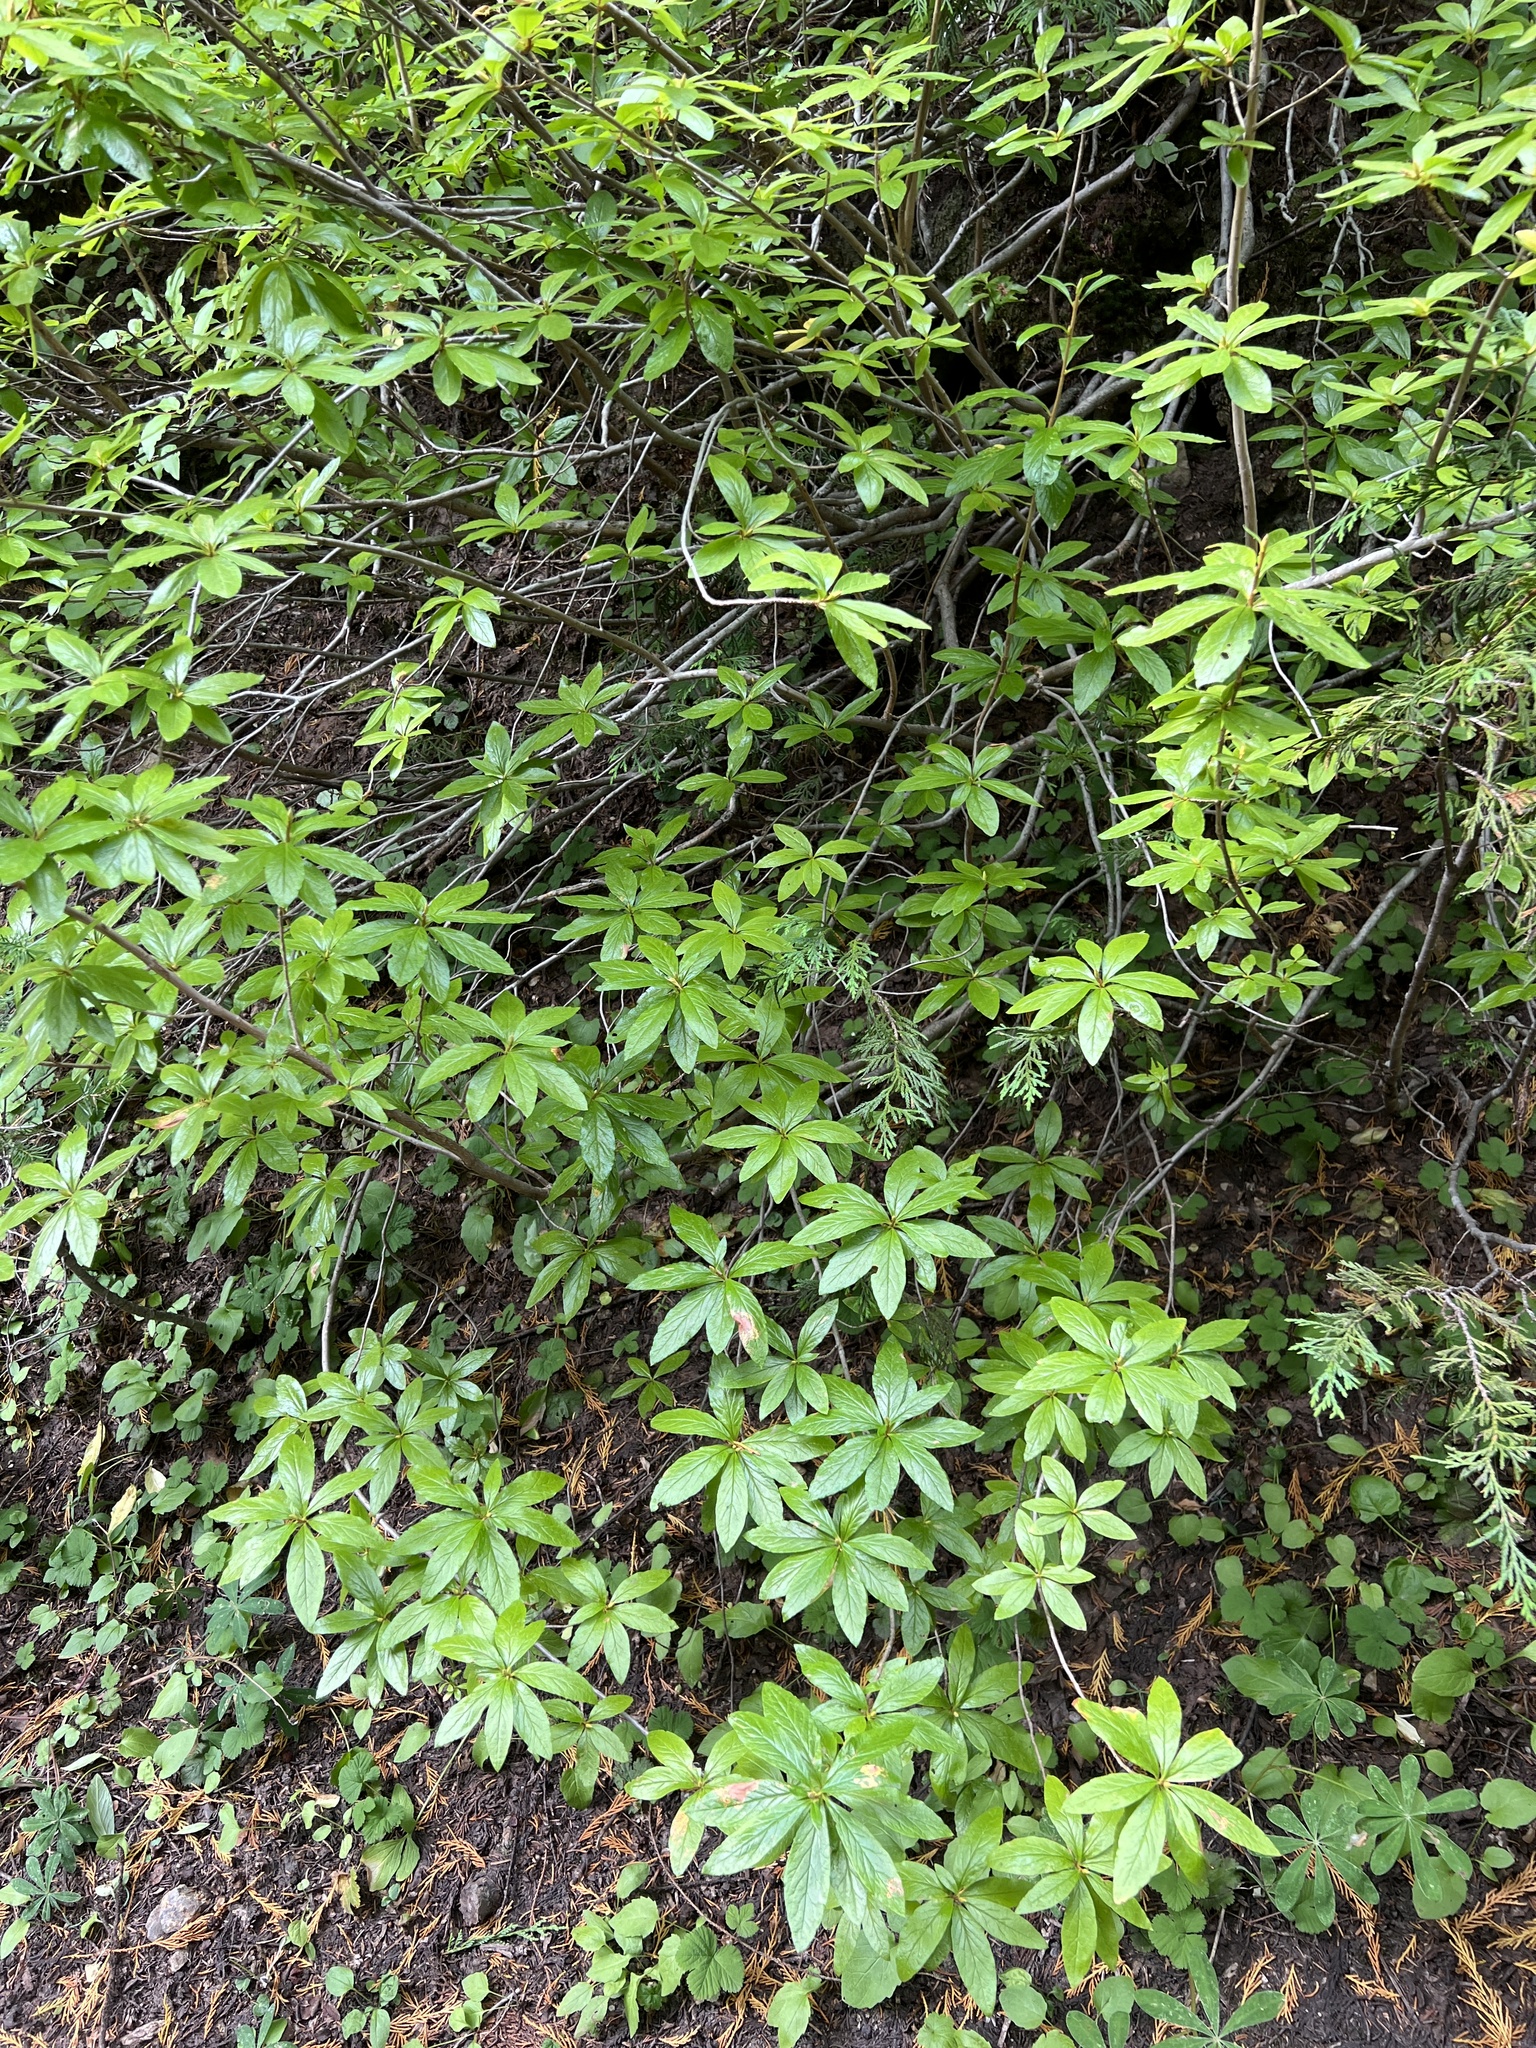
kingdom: Plantae
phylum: Tracheophyta
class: Magnoliopsida
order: Ericales
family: Ericaceae
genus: Rhododendron
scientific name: Rhododendron albiflorum
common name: White rhododendron
